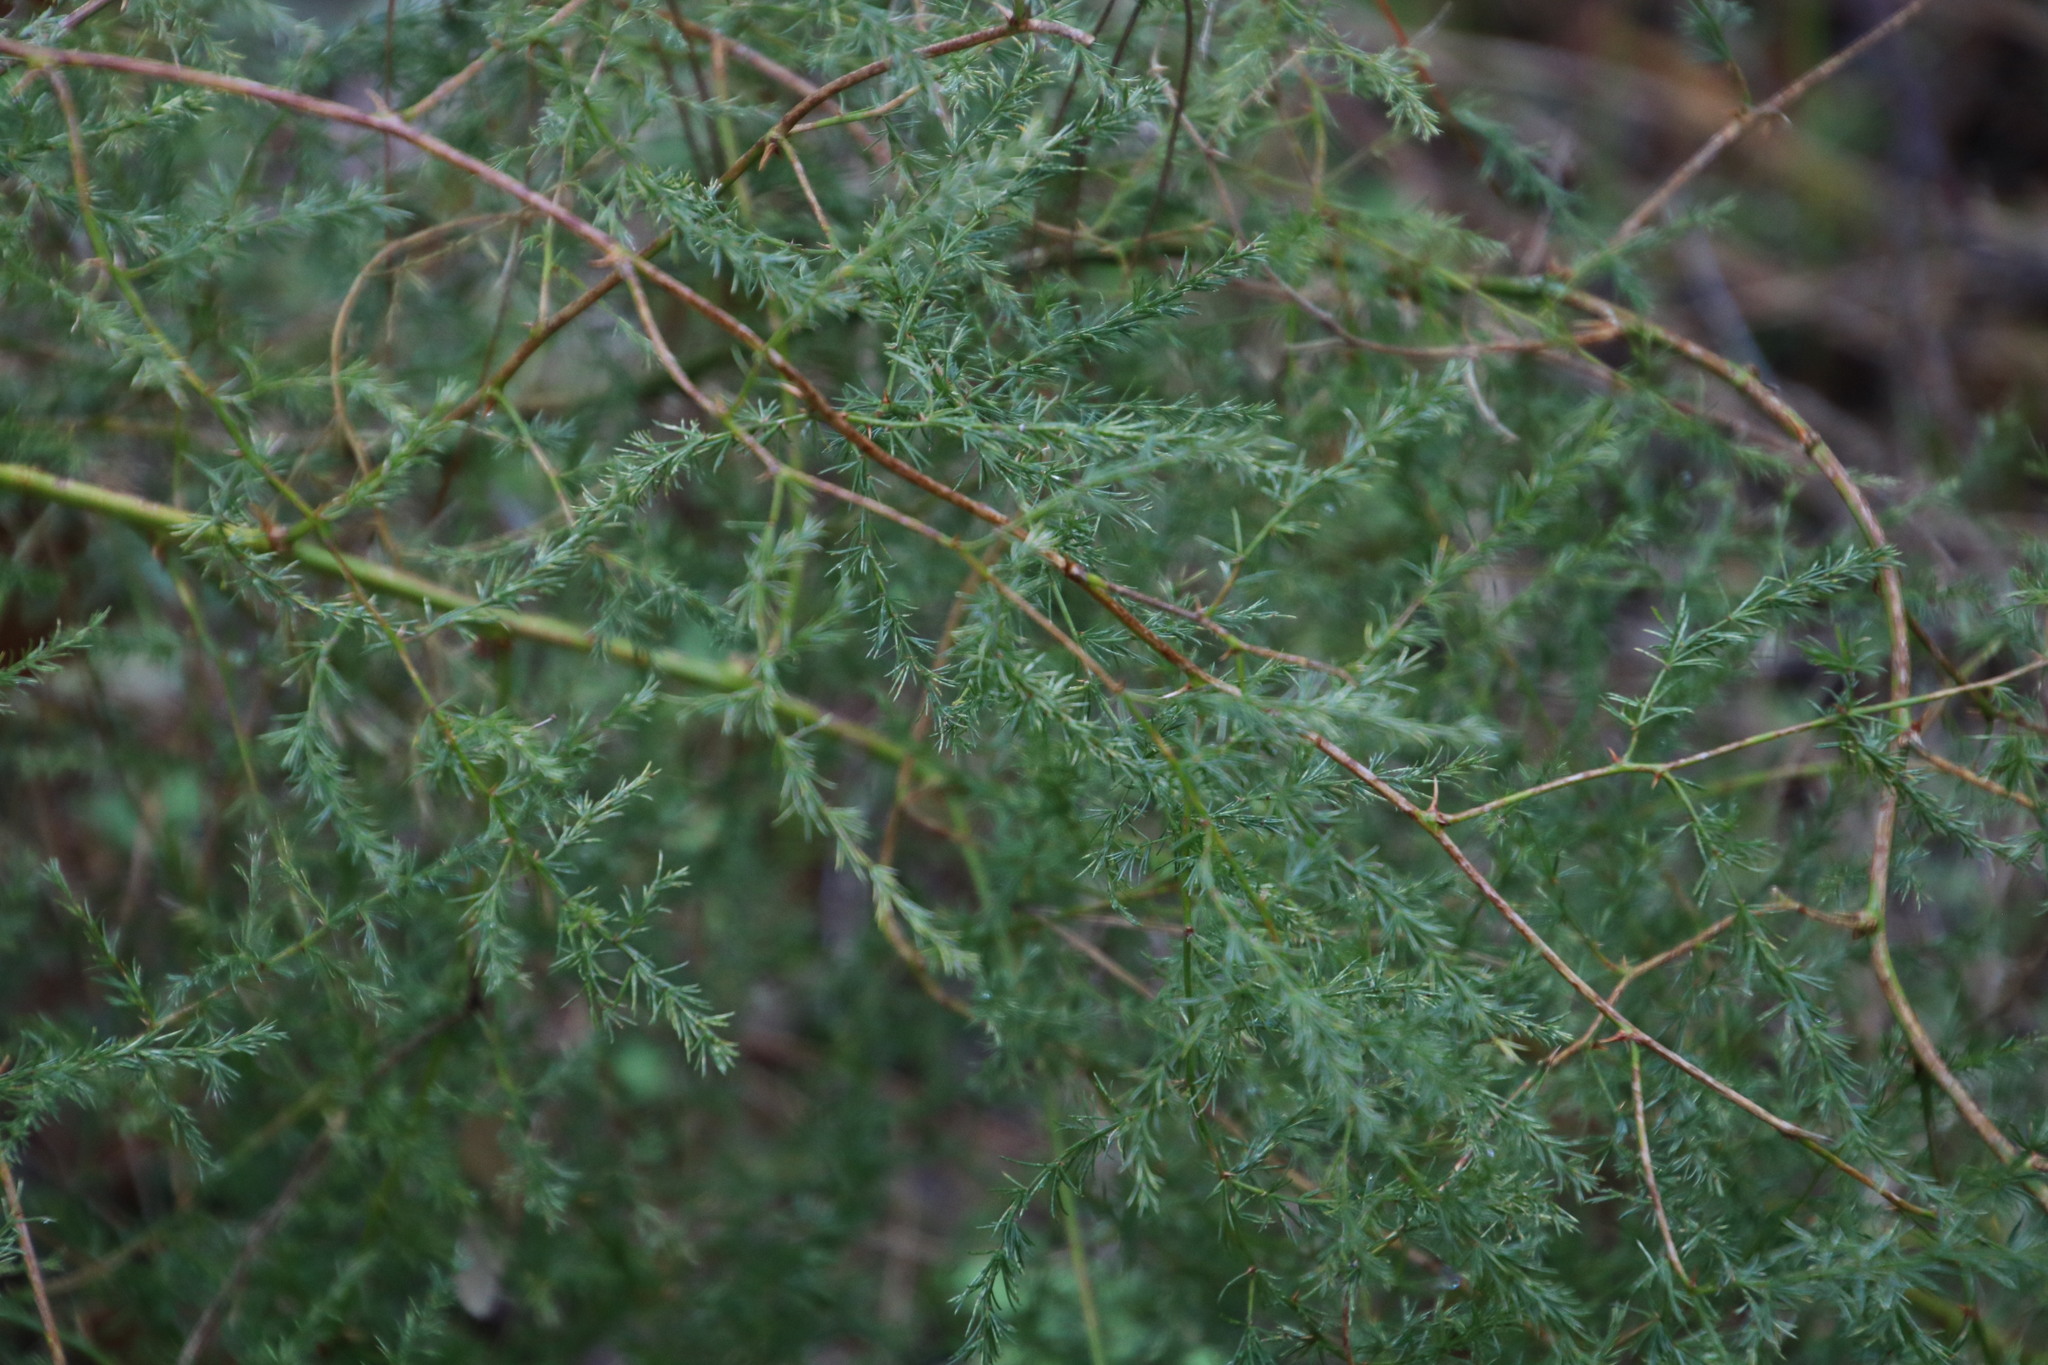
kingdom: Plantae
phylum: Tracheophyta
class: Liliopsida
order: Asparagales
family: Asparagaceae
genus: Asparagus
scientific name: Asparagus rubicundus
